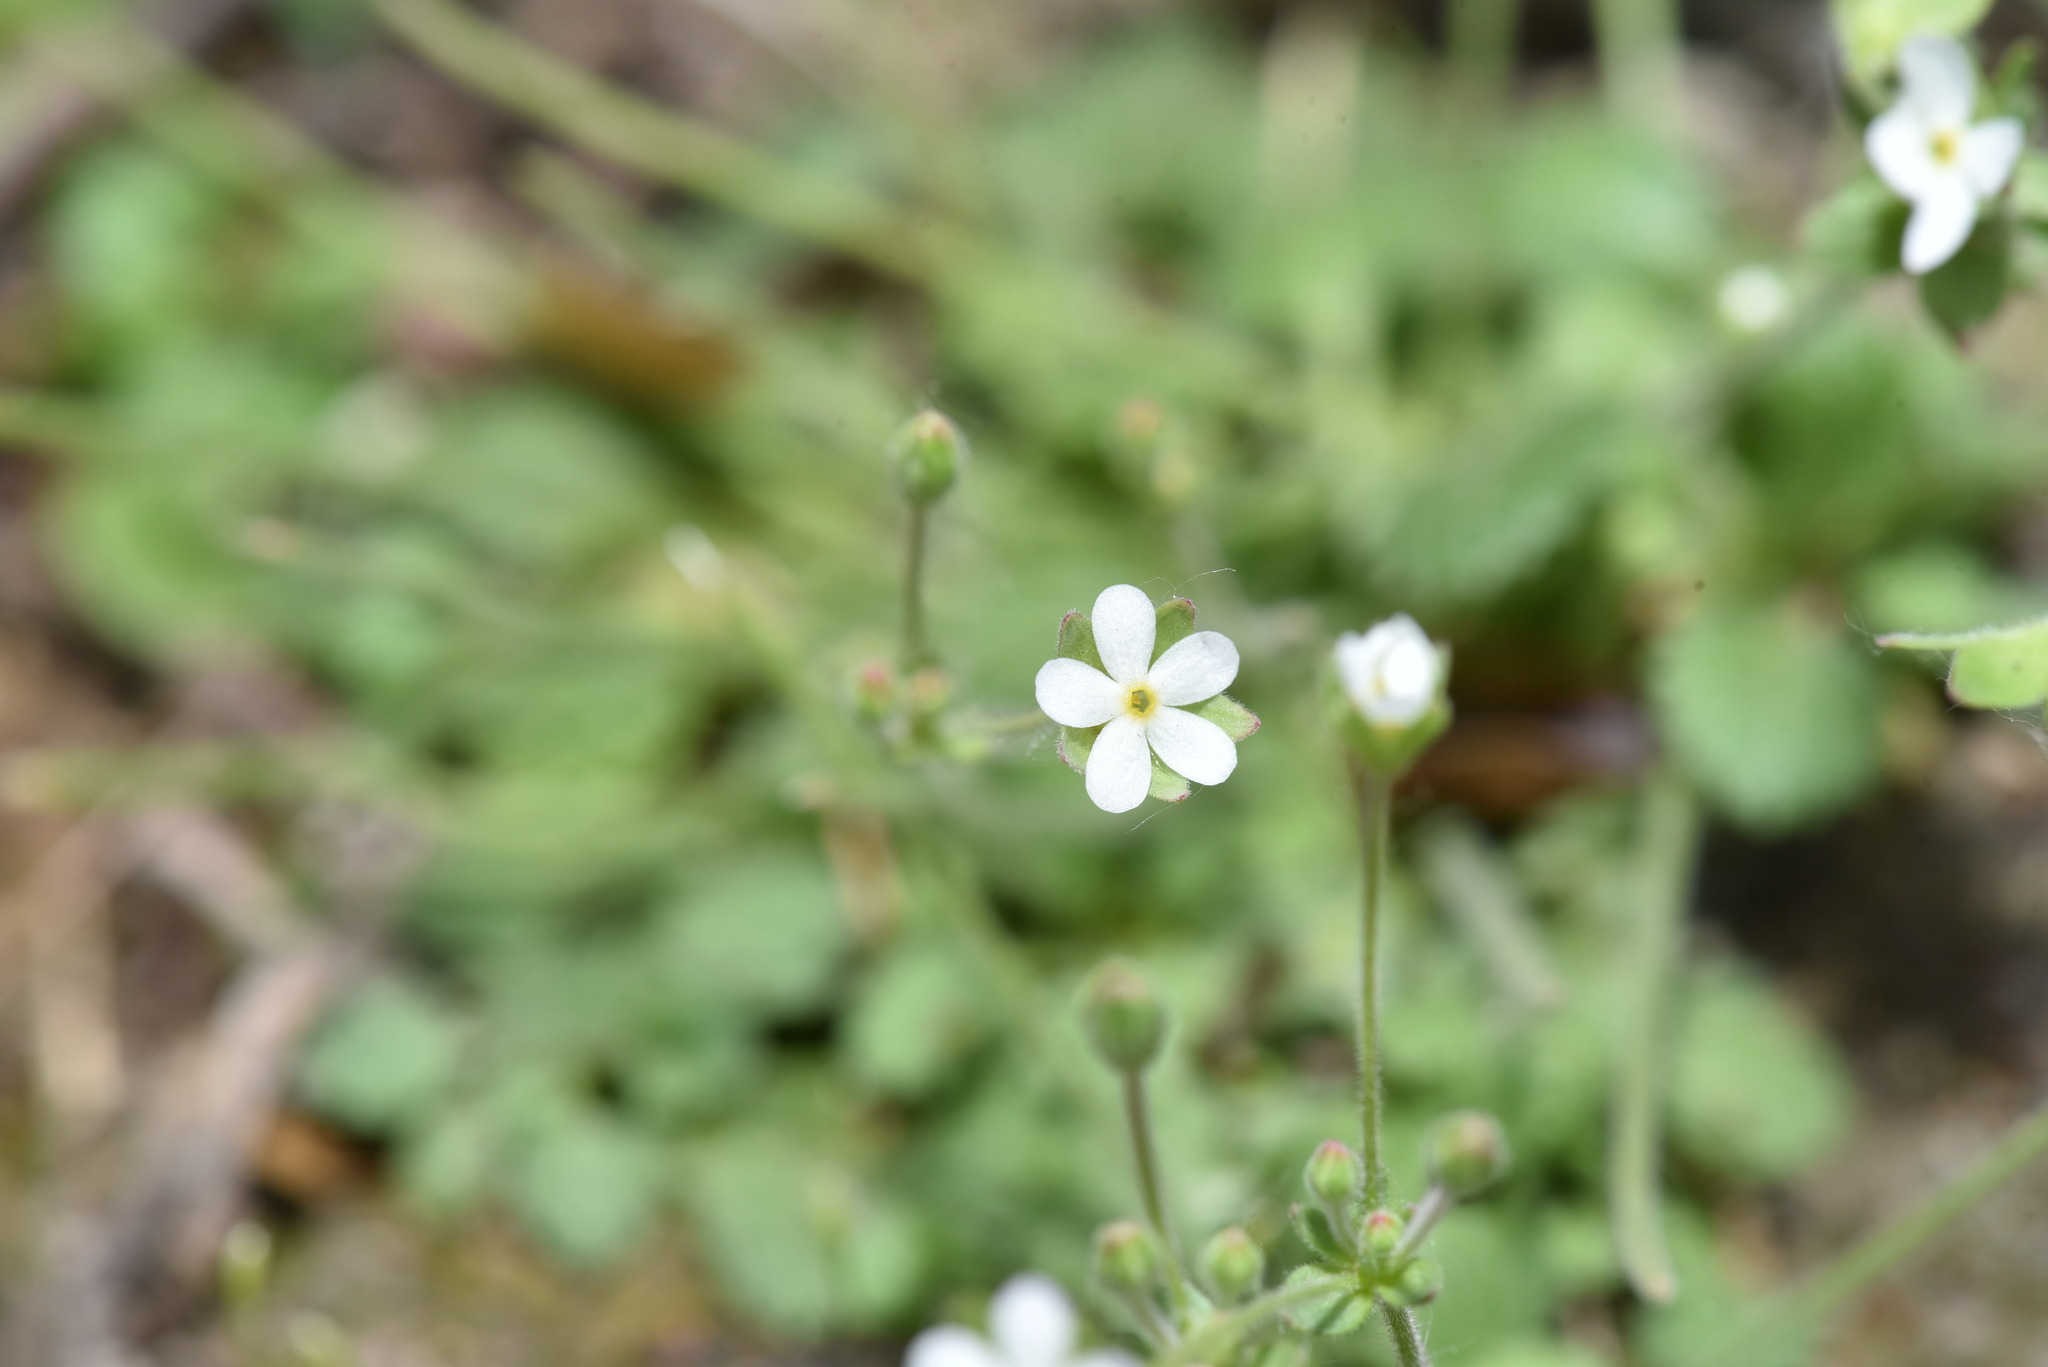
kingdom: Plantae
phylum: Tracheophyta
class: Magnoliopsida
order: Ericales
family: Primulaceae
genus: Androsace
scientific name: Androsace umbellata
